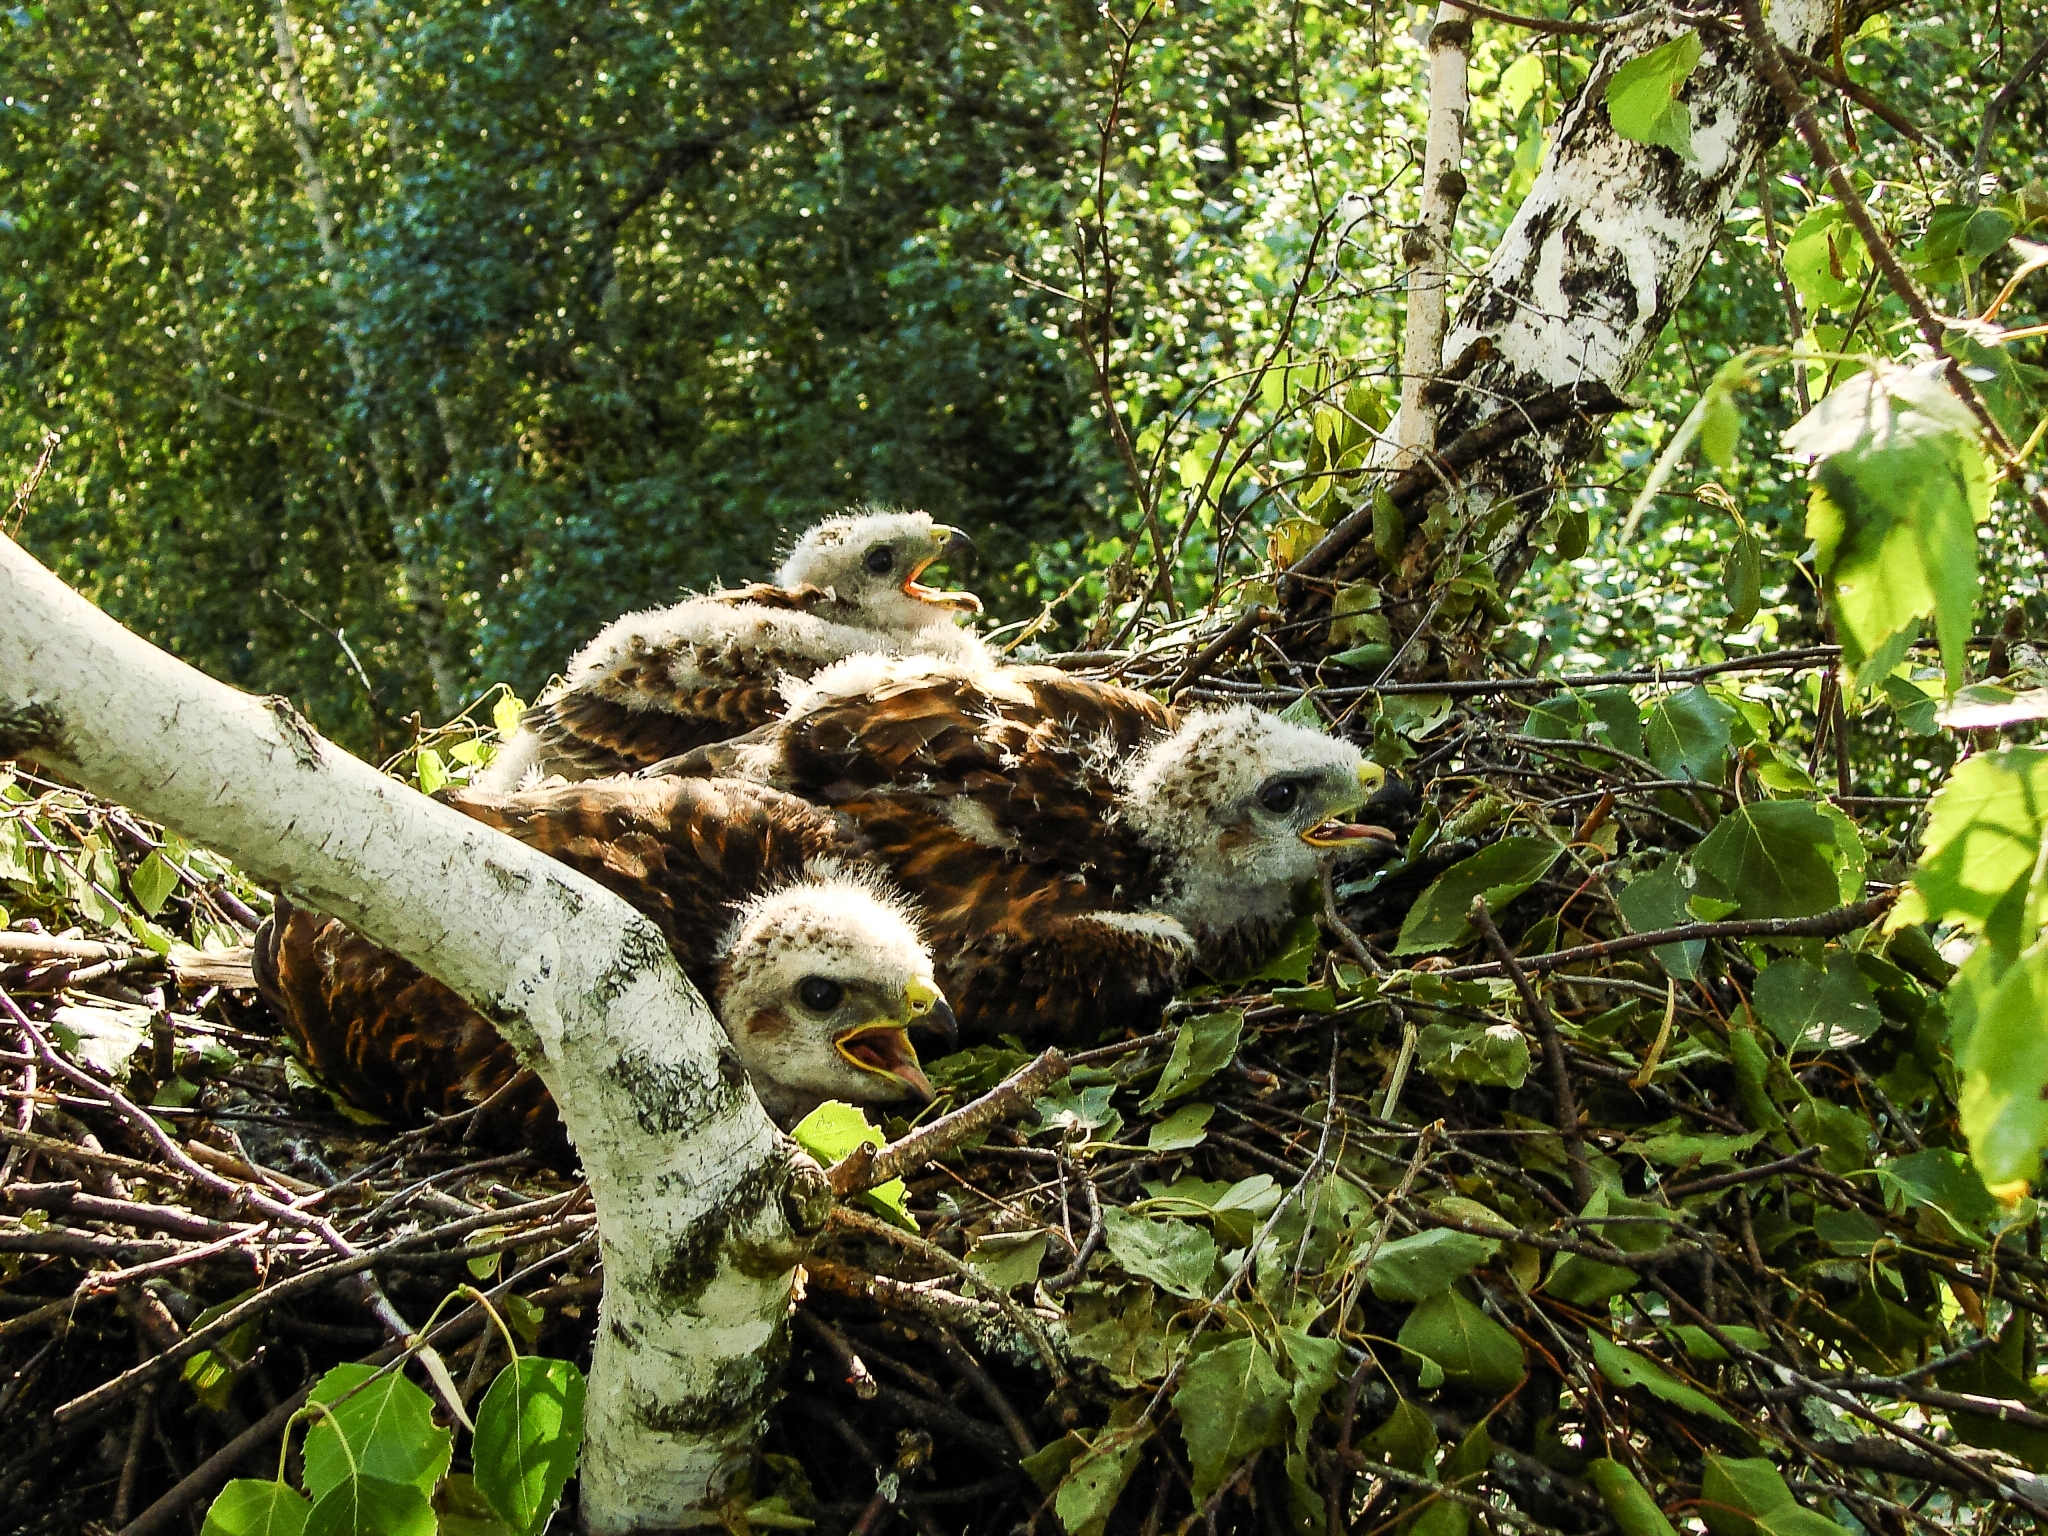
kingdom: Animalia
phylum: Chordata
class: Aves
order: Accipitriformes
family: Accipitridae
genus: Buteo
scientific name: Buteo buteo
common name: Common buzzard
